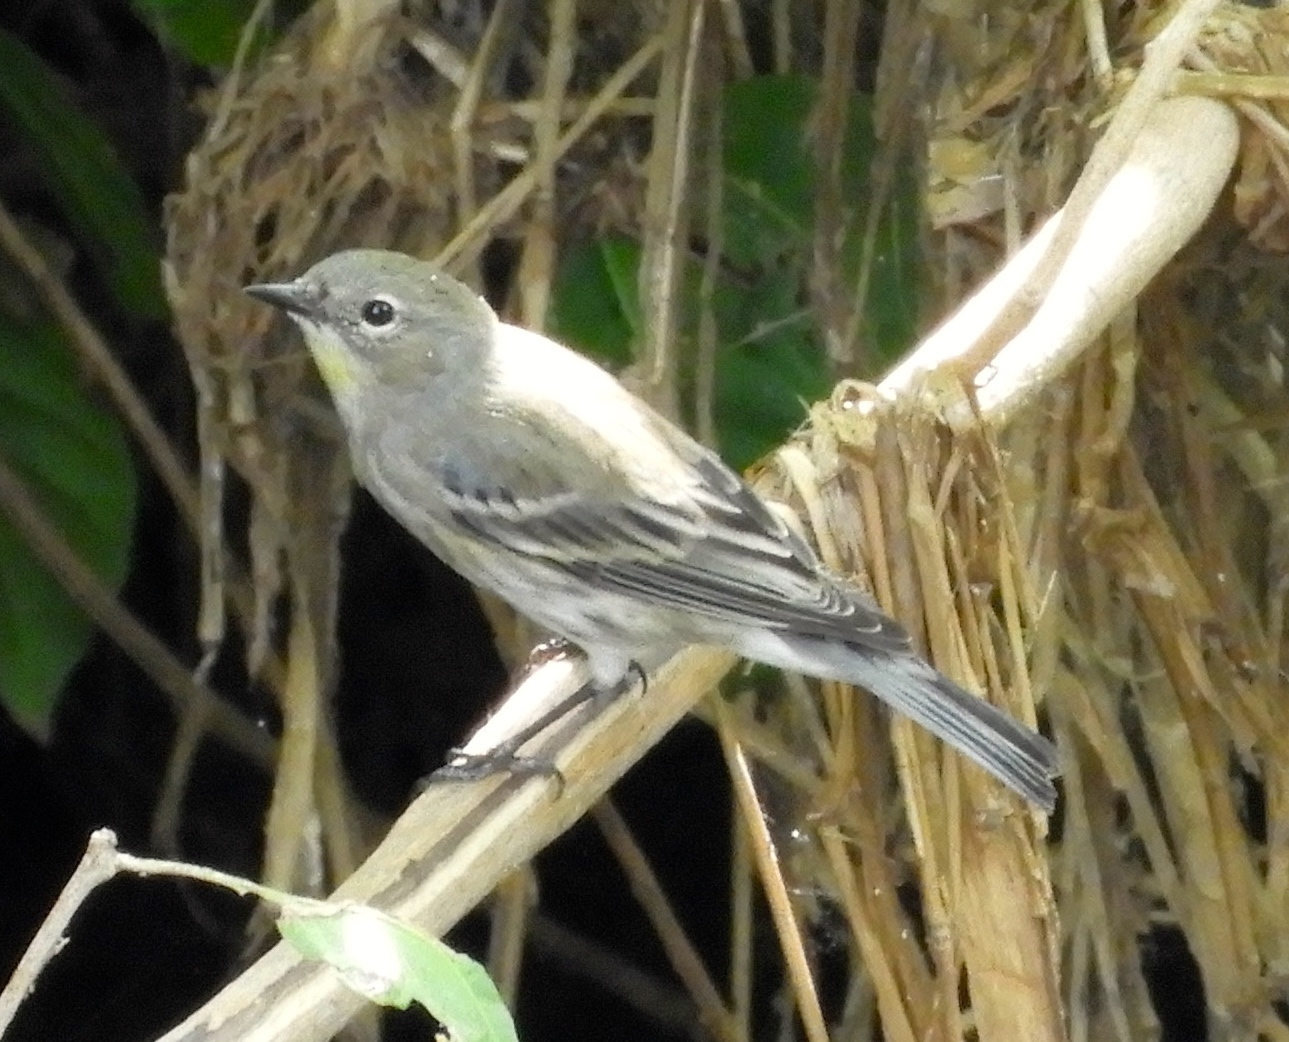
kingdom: Animalia
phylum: Chordata
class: Aves
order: Passeriformes
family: Parulidae
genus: Setophaga
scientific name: Setophaga coronata
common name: Myrtle warbler
